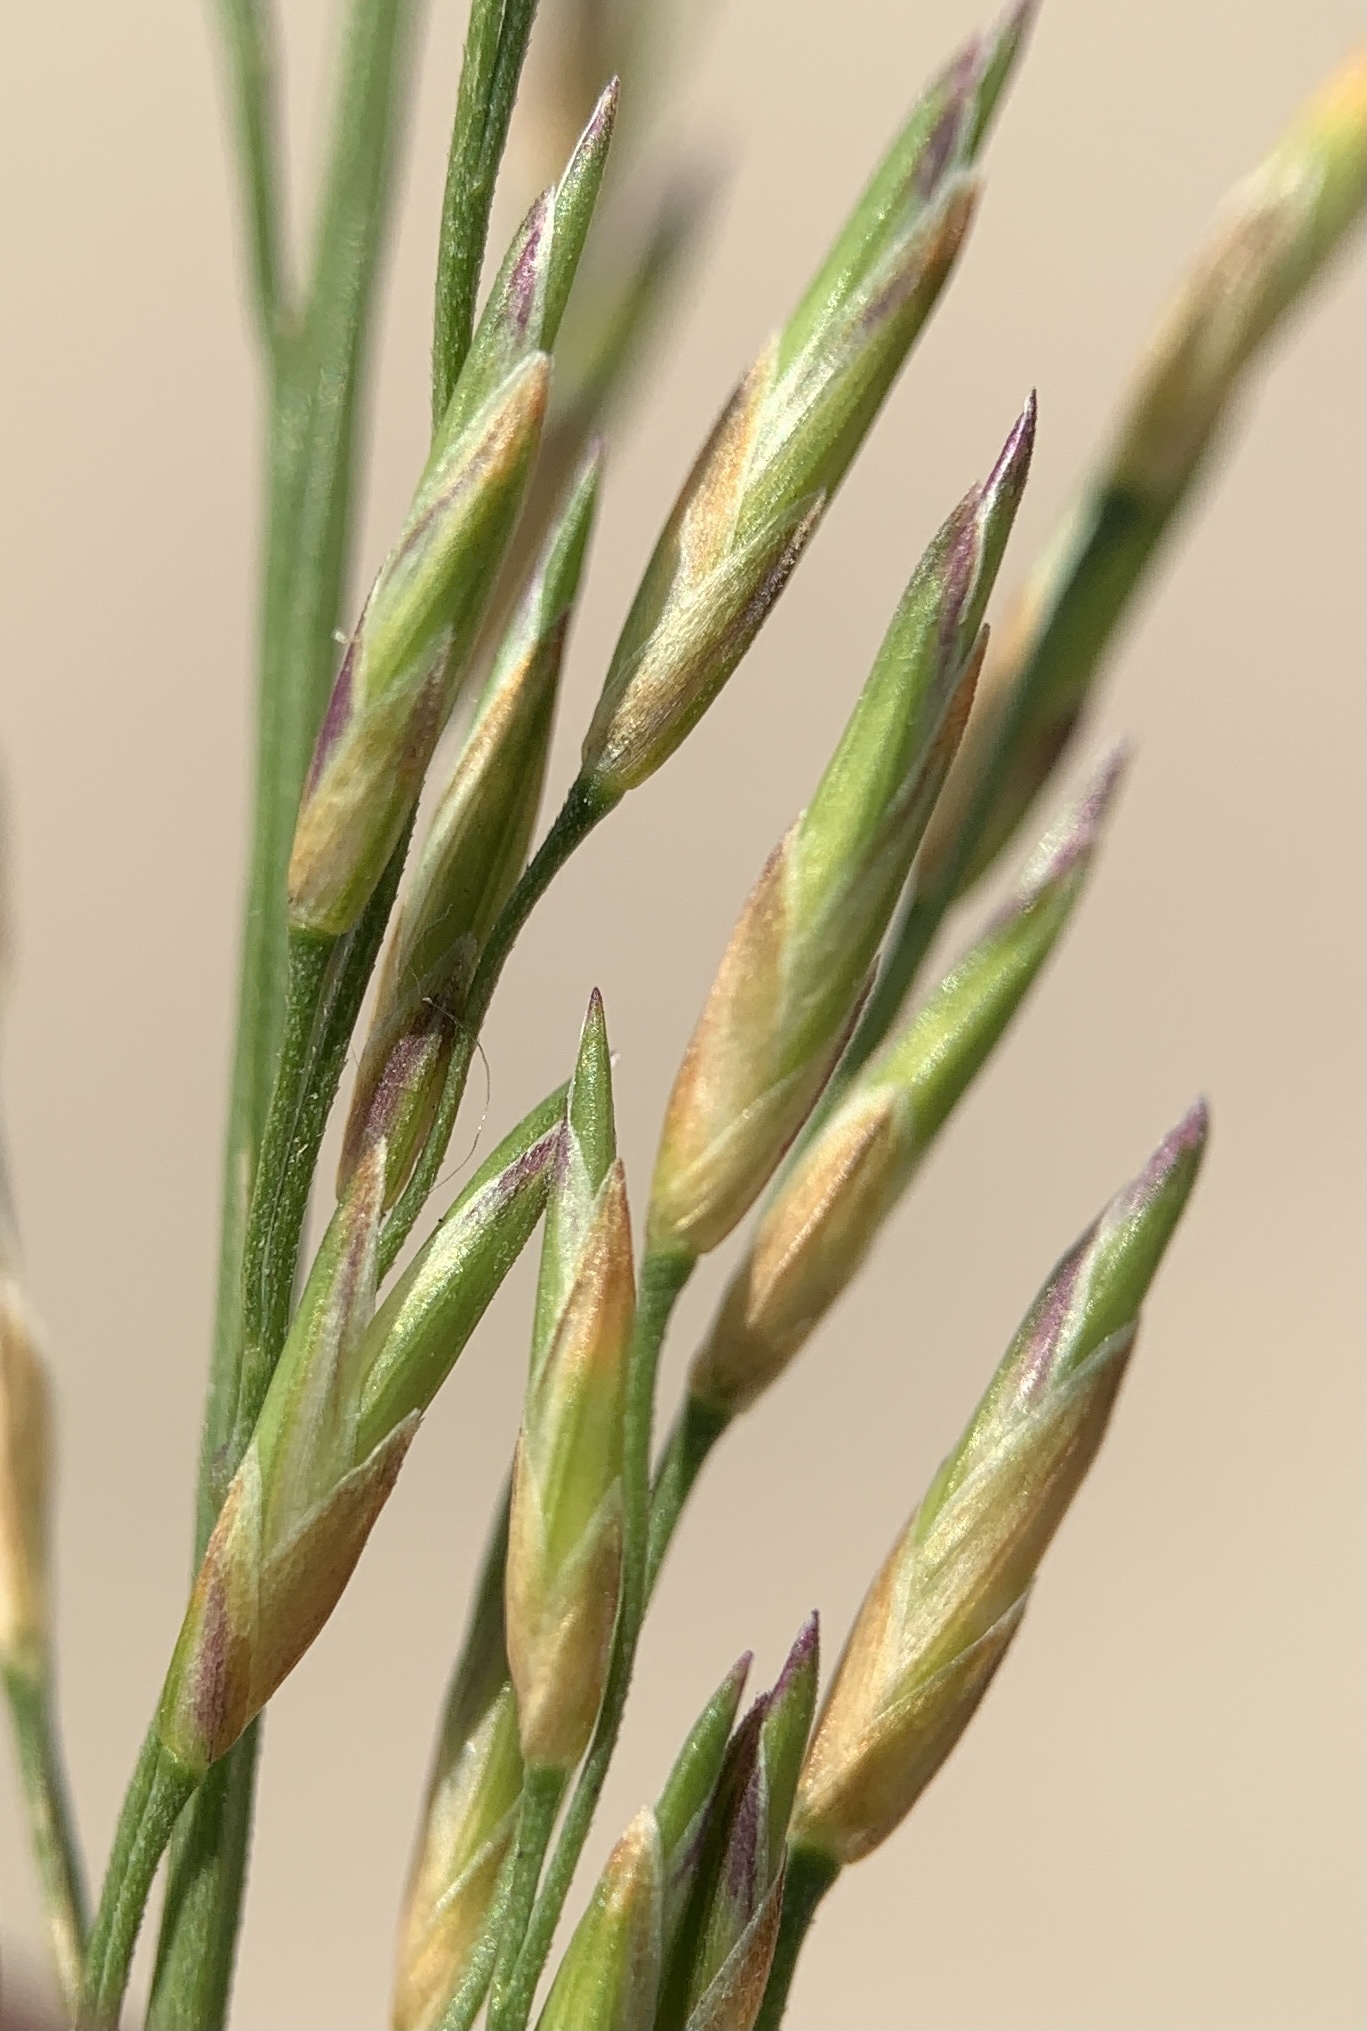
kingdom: Plantae
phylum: Tracheophyta
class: Liliopsida
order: Poales
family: Poaceae
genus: Molinia
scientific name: Molinia caerulea
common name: Purple moor-grass
